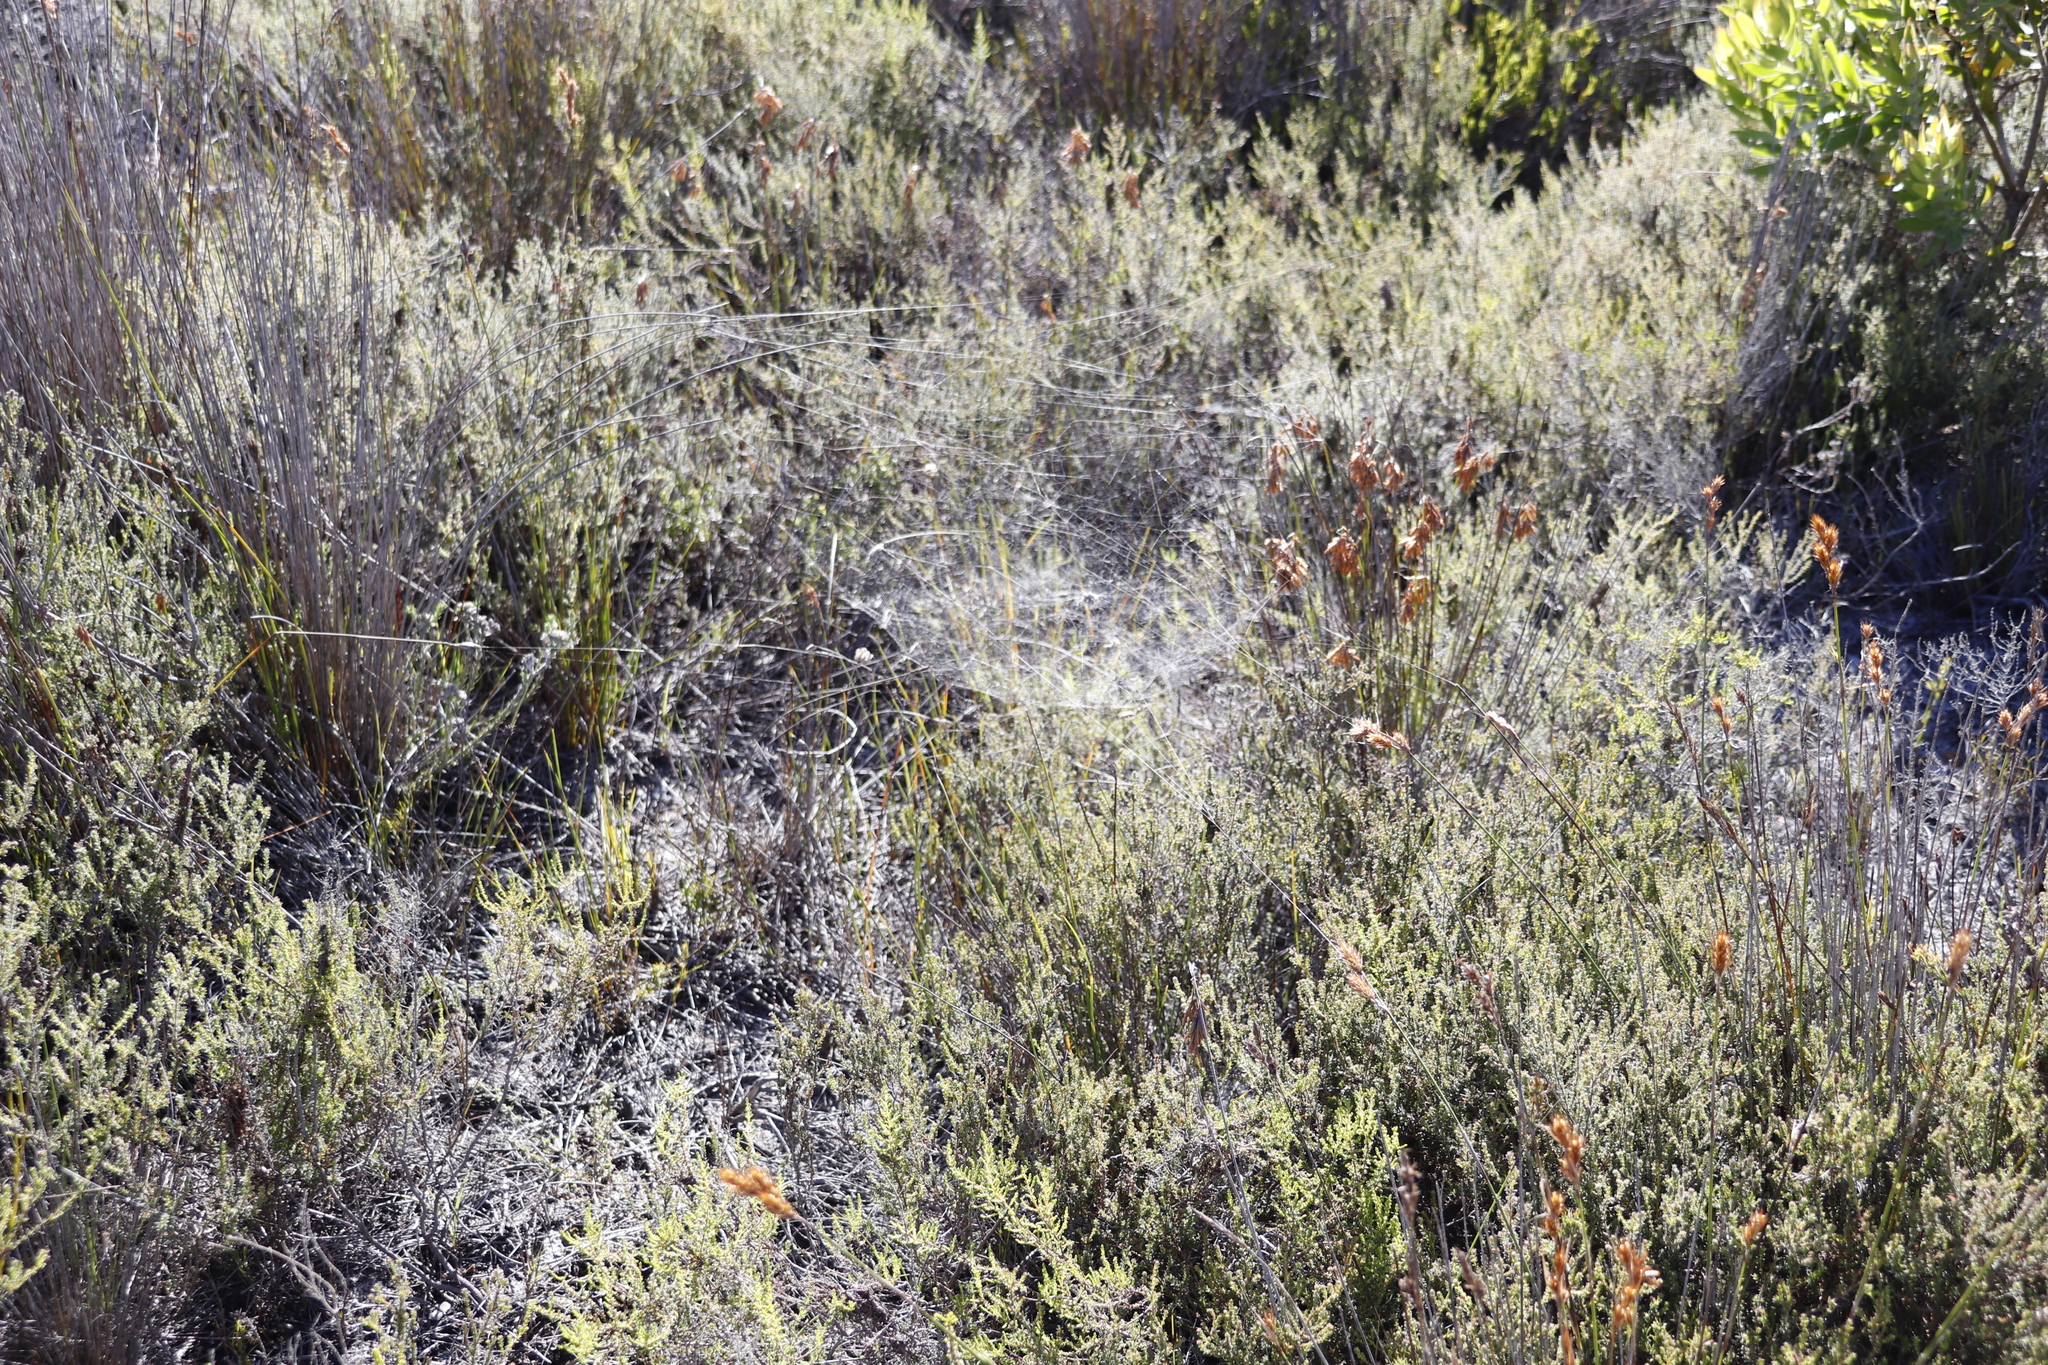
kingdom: Animalia
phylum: Arthropoda
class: Arachnida
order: Araneae
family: Araneidae
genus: Cyrtophora
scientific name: Cyrtophora citricola
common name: Orb weavers
